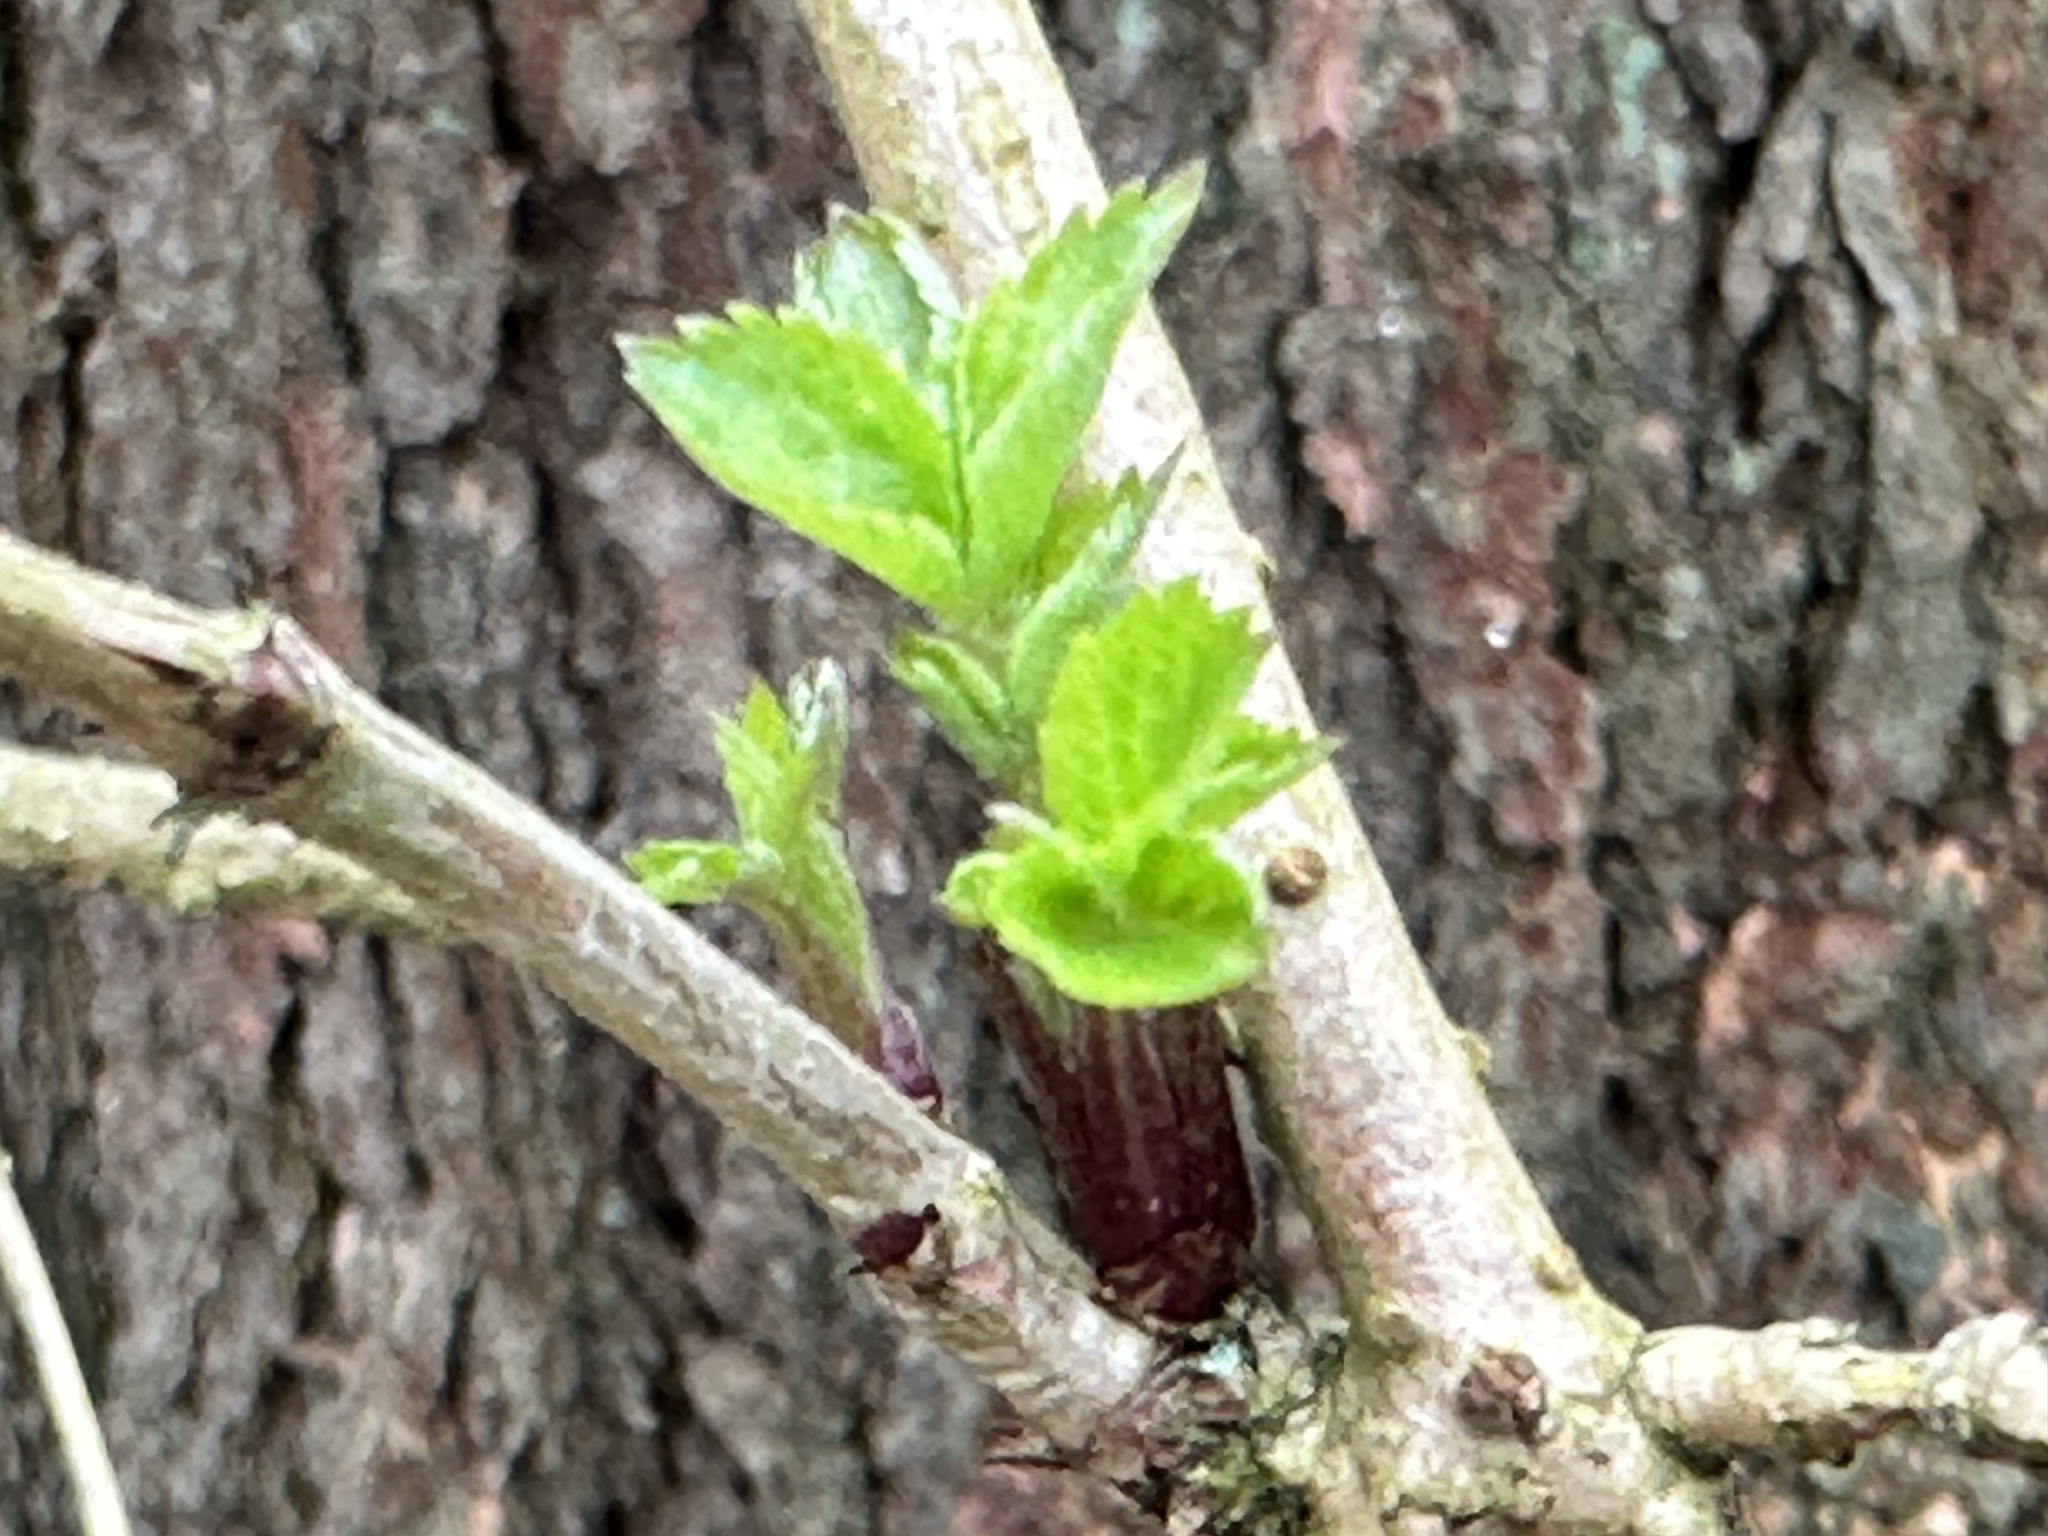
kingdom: Plantae
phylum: Tracheophyta
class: Magnoliopsida
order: Dipsacales
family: Viburnaceae
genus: Sambucus
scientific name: Sambucus nigra
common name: Elder
